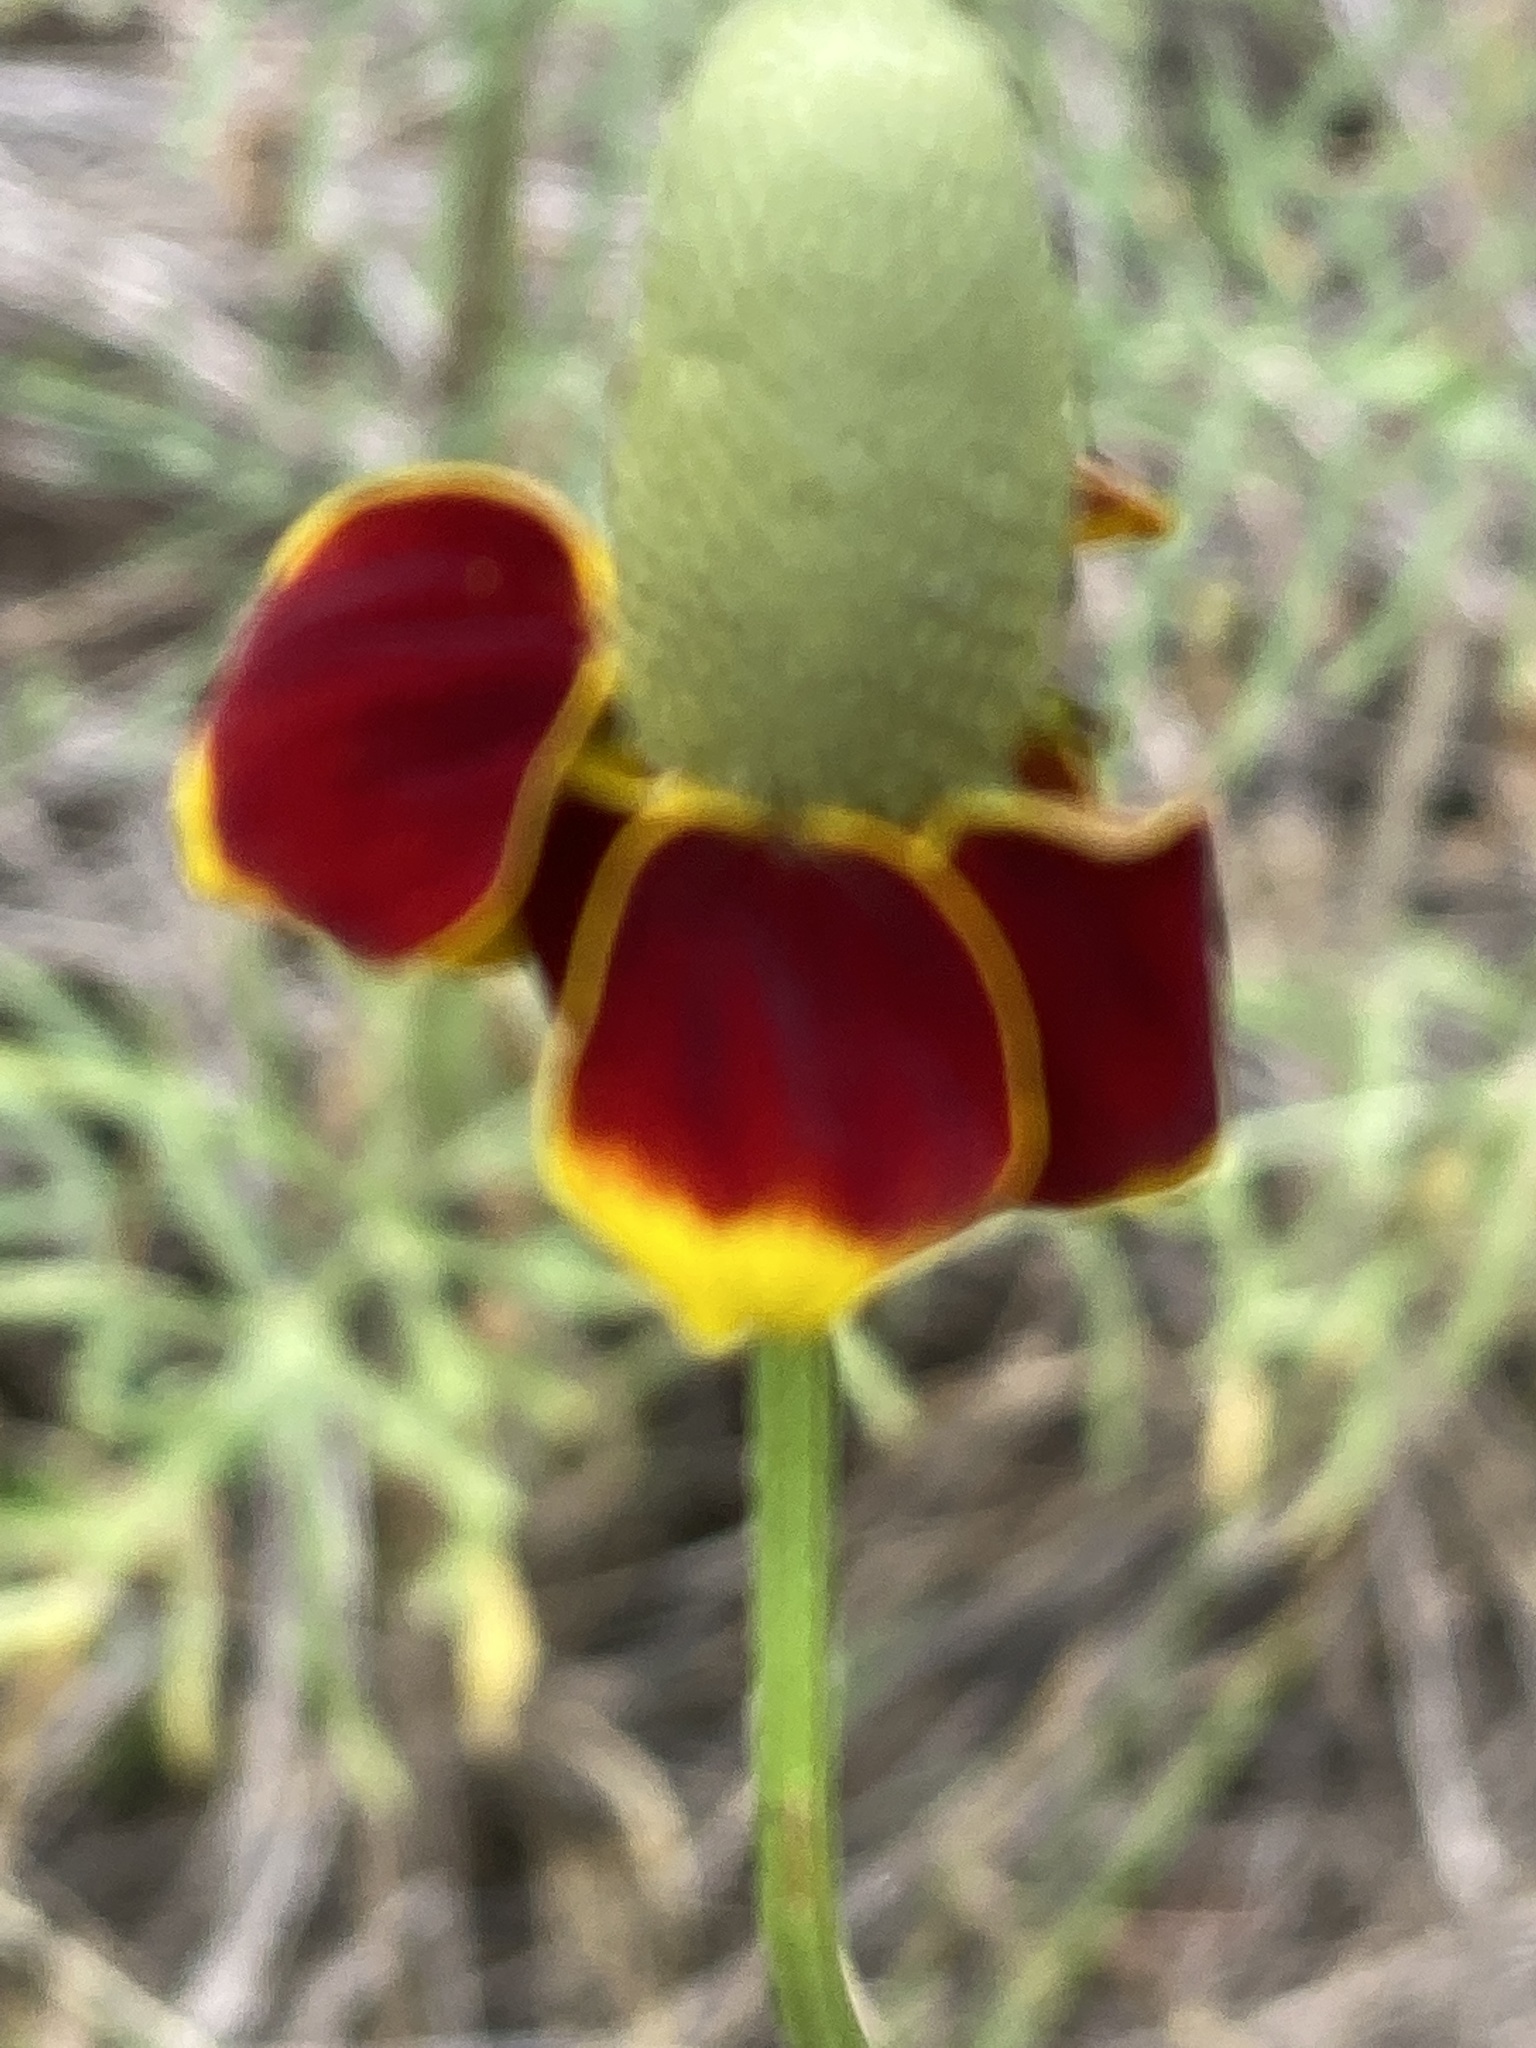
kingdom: Plantae
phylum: Tracheophyta
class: Magnoliopsida
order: Asterales
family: Asteraceae
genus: Ratibida
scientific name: Ratibida columnifera
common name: Prairie coneflower
